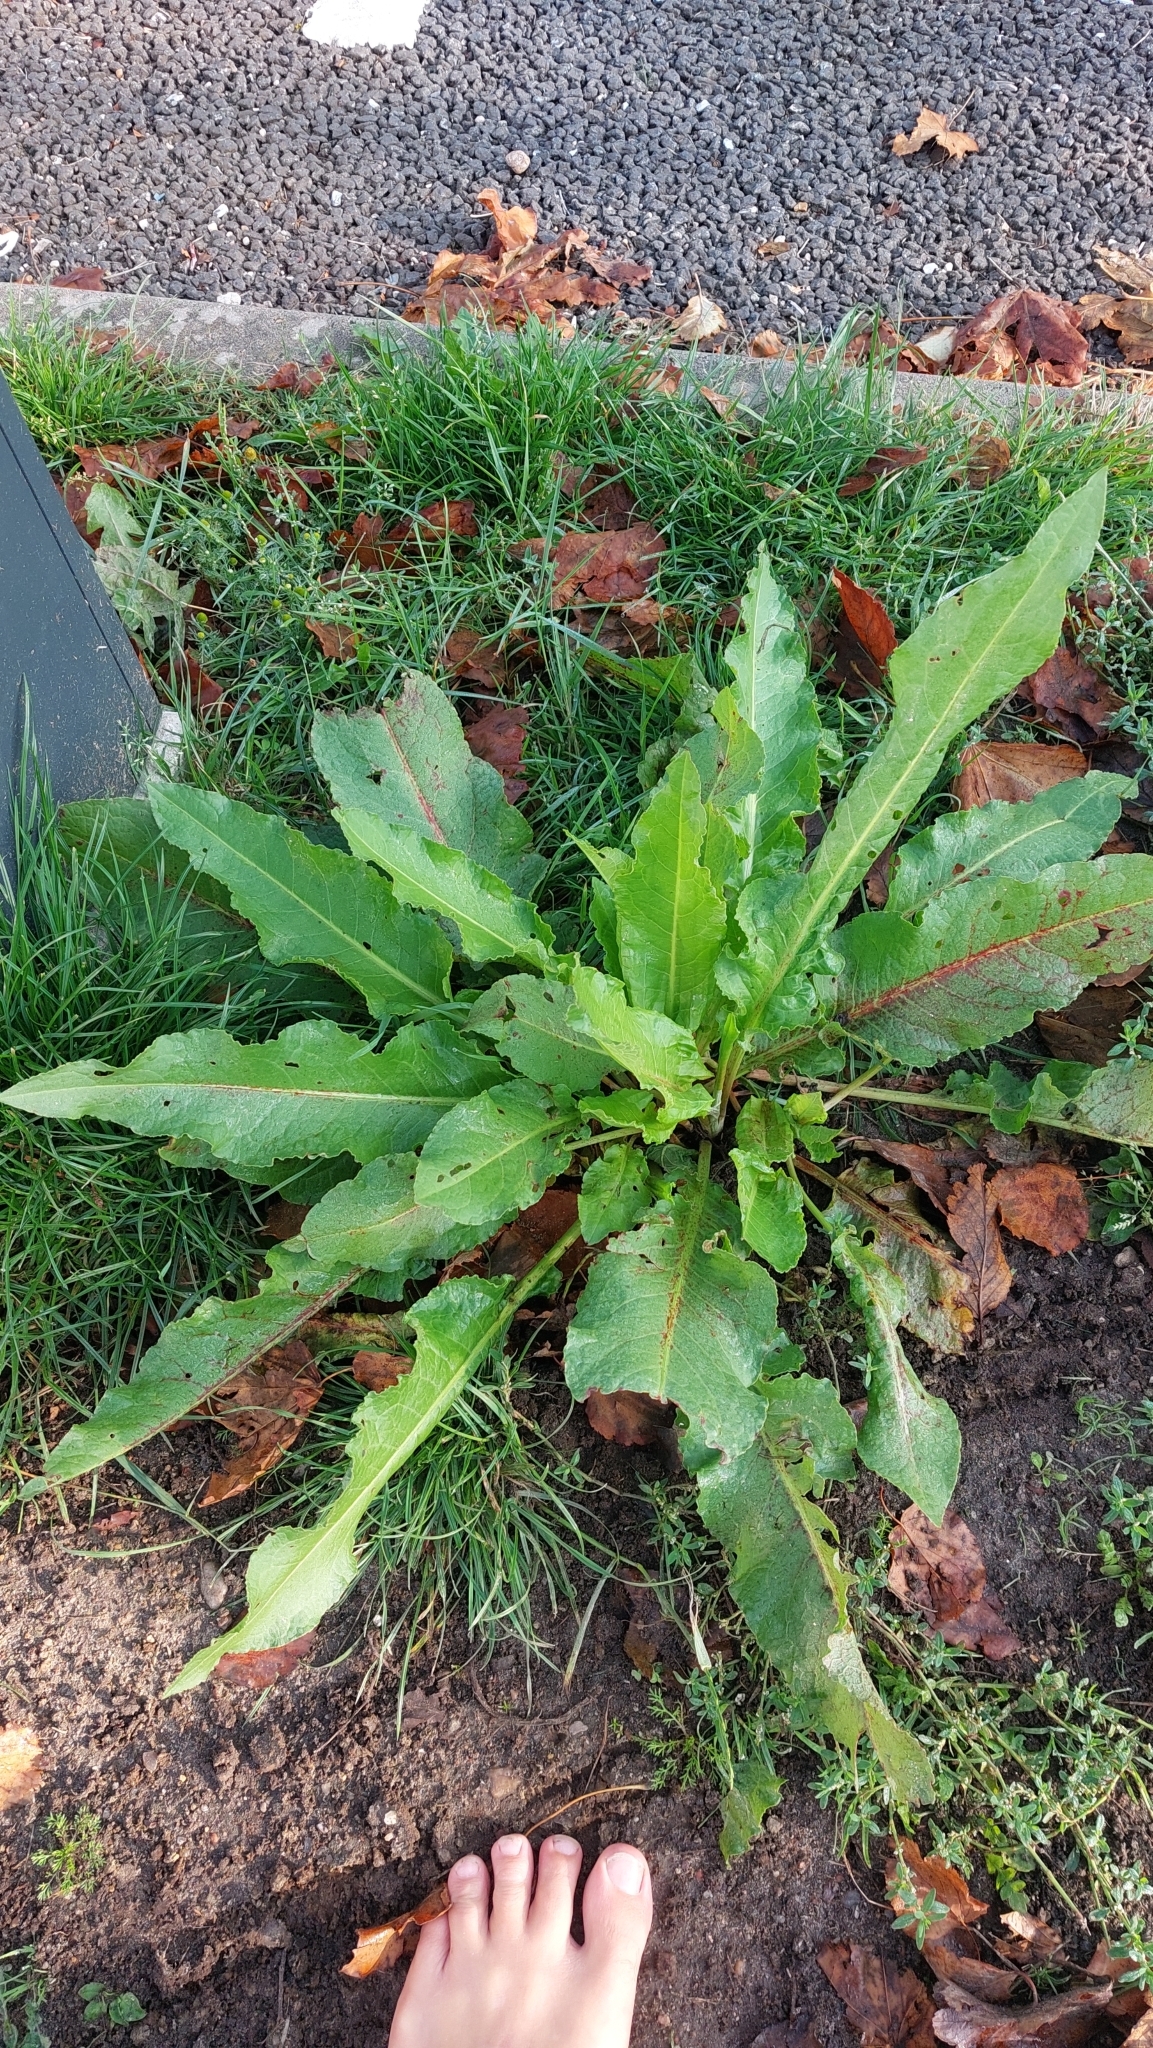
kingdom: Plantae
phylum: Tracheophyta
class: Magnoliopsida
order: Caryophyllales
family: Polygonaceae
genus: Rumex
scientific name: Rumex crispus
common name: Curled dock
